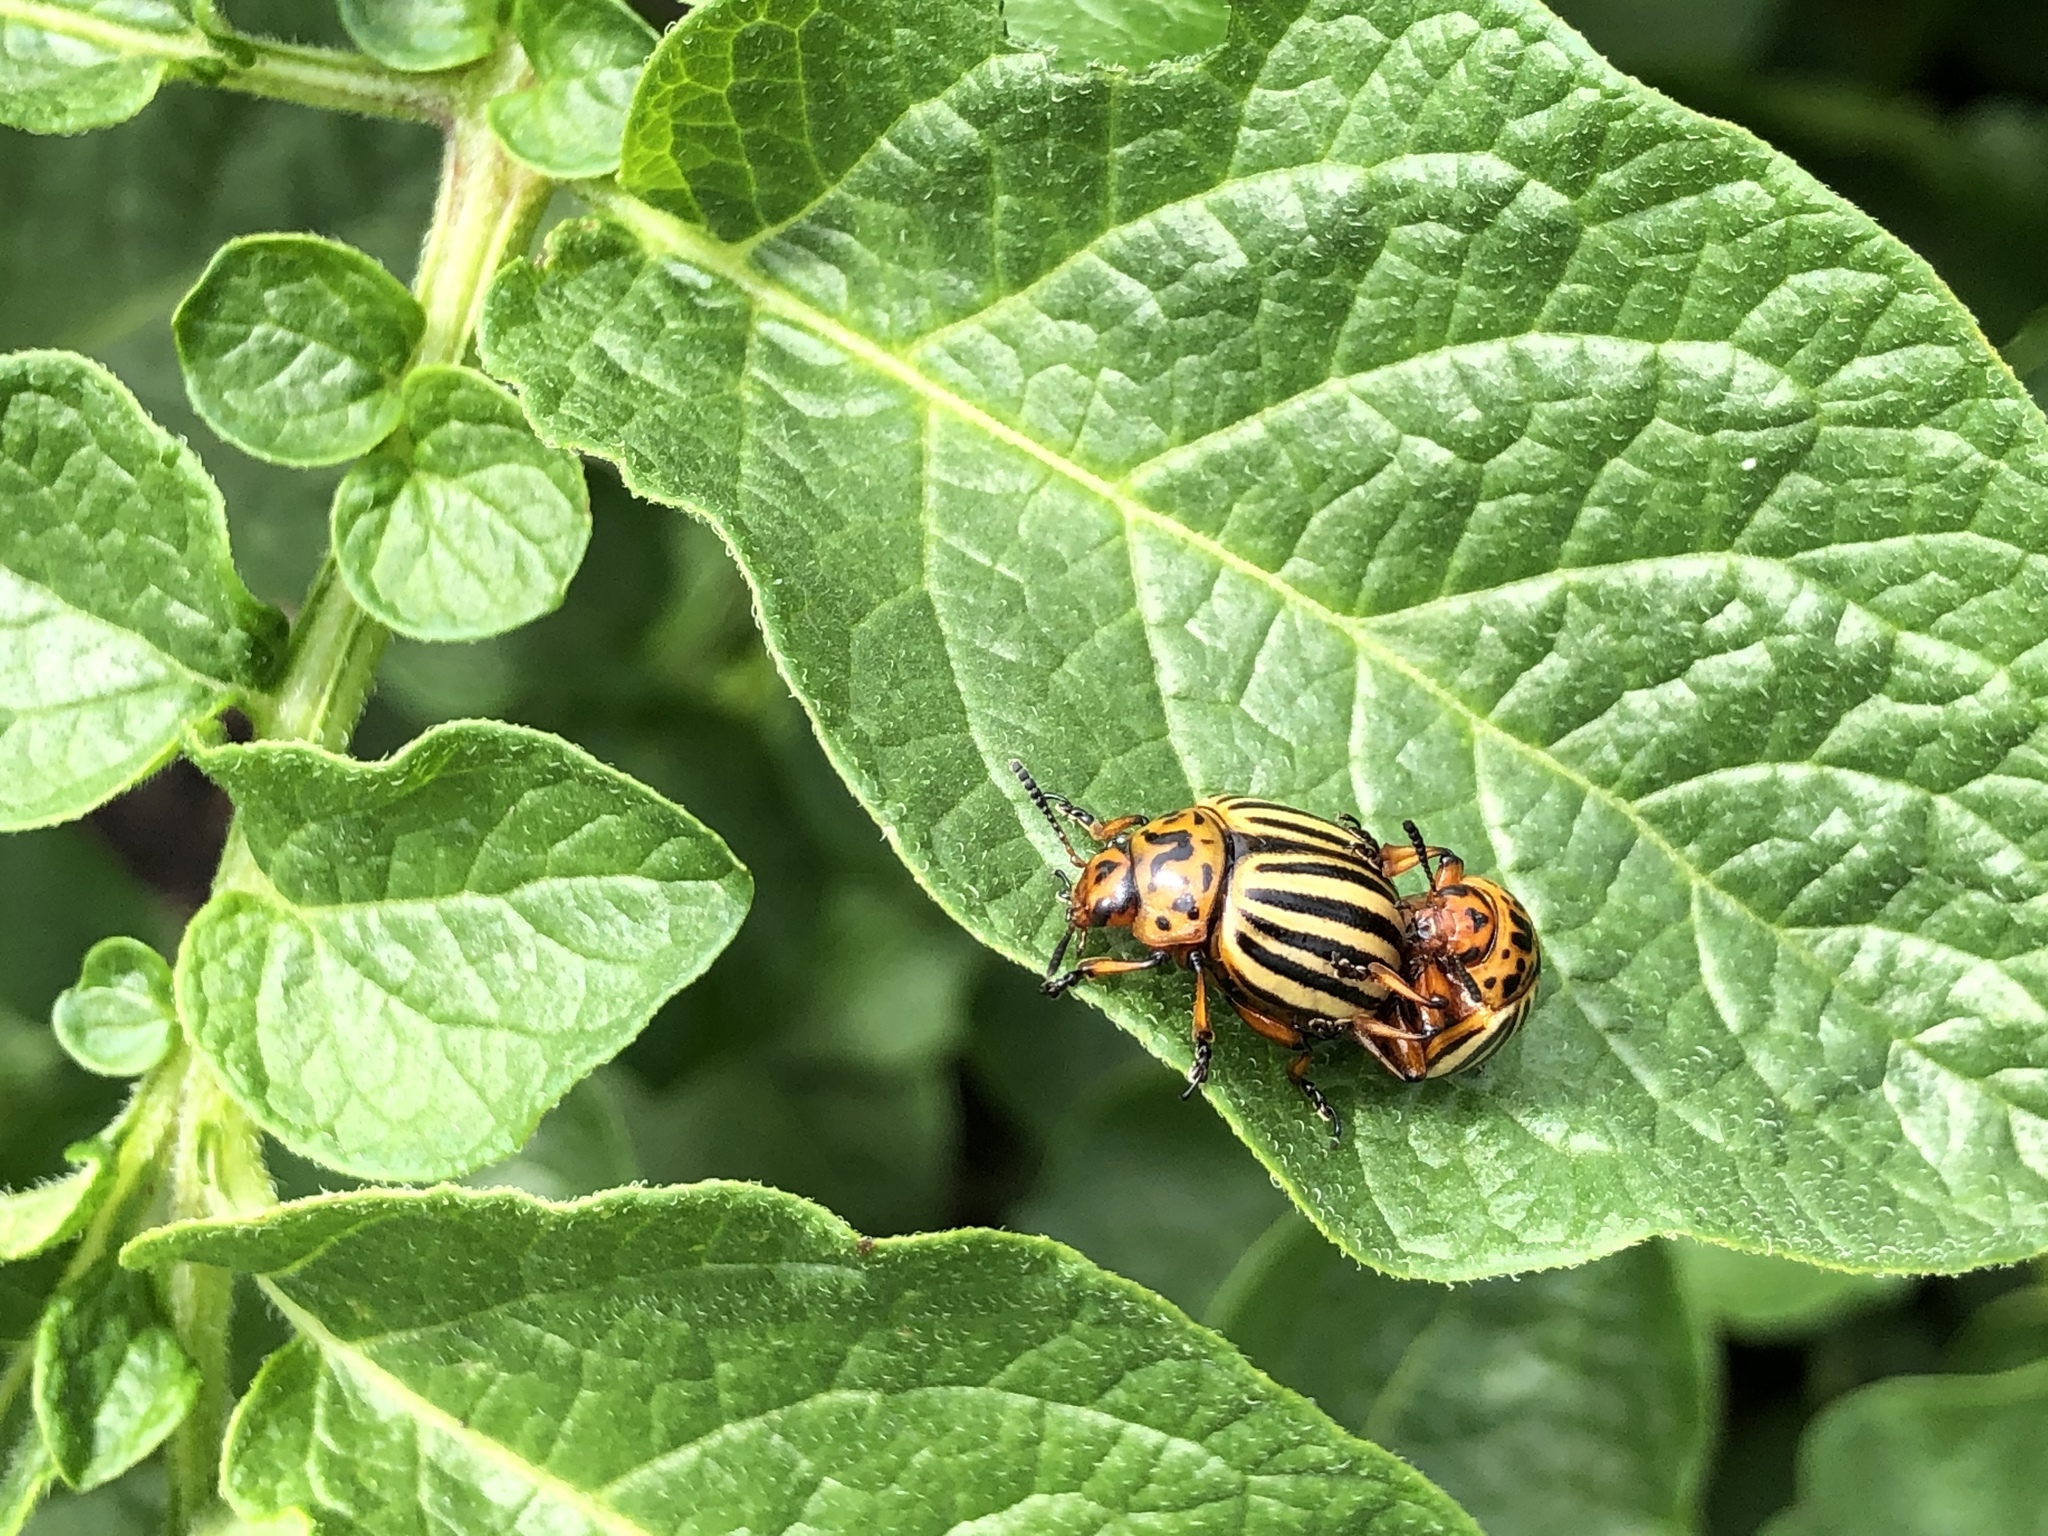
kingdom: Animalia
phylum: Arthropoda
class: Insecta
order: Coleoptera
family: Chrysomelidae
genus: Leptinotarsa
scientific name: Leptinotarsa decemlineata
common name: Colorado potato beetle
